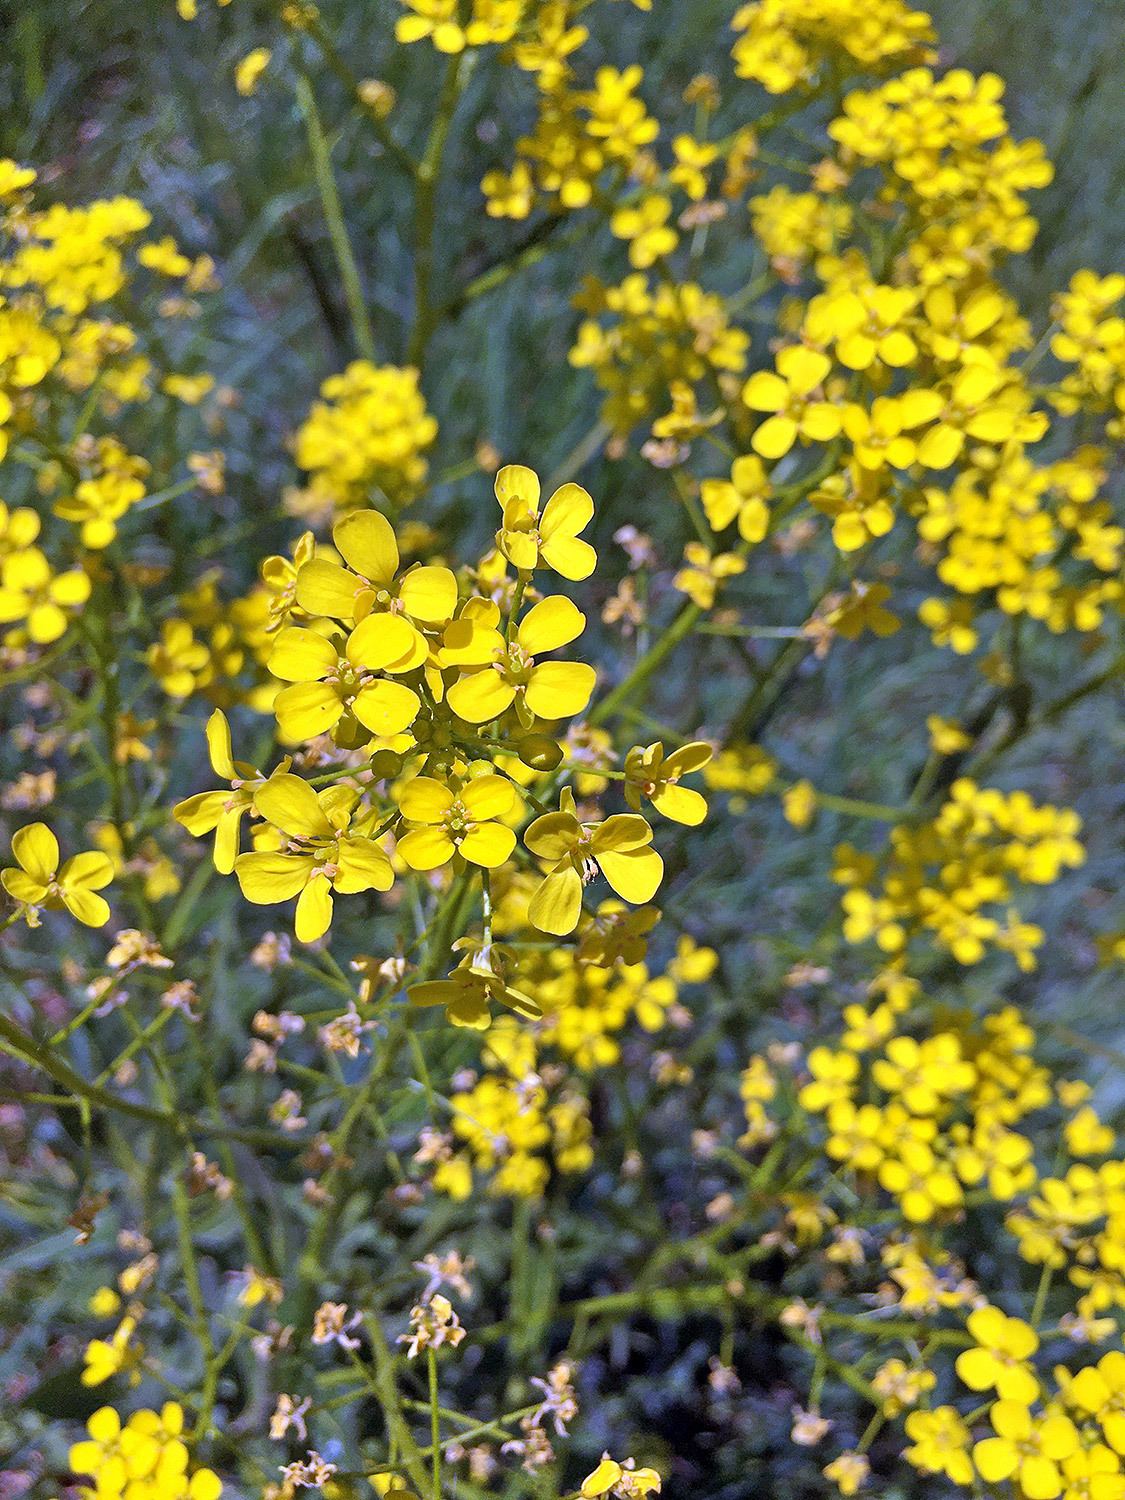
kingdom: Plantae
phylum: Tracheophyta
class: Magnoliopsida
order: Brassicales
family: Brassicaceae
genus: Bunias
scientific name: Bunias orientalis
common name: Warty-cabbage
